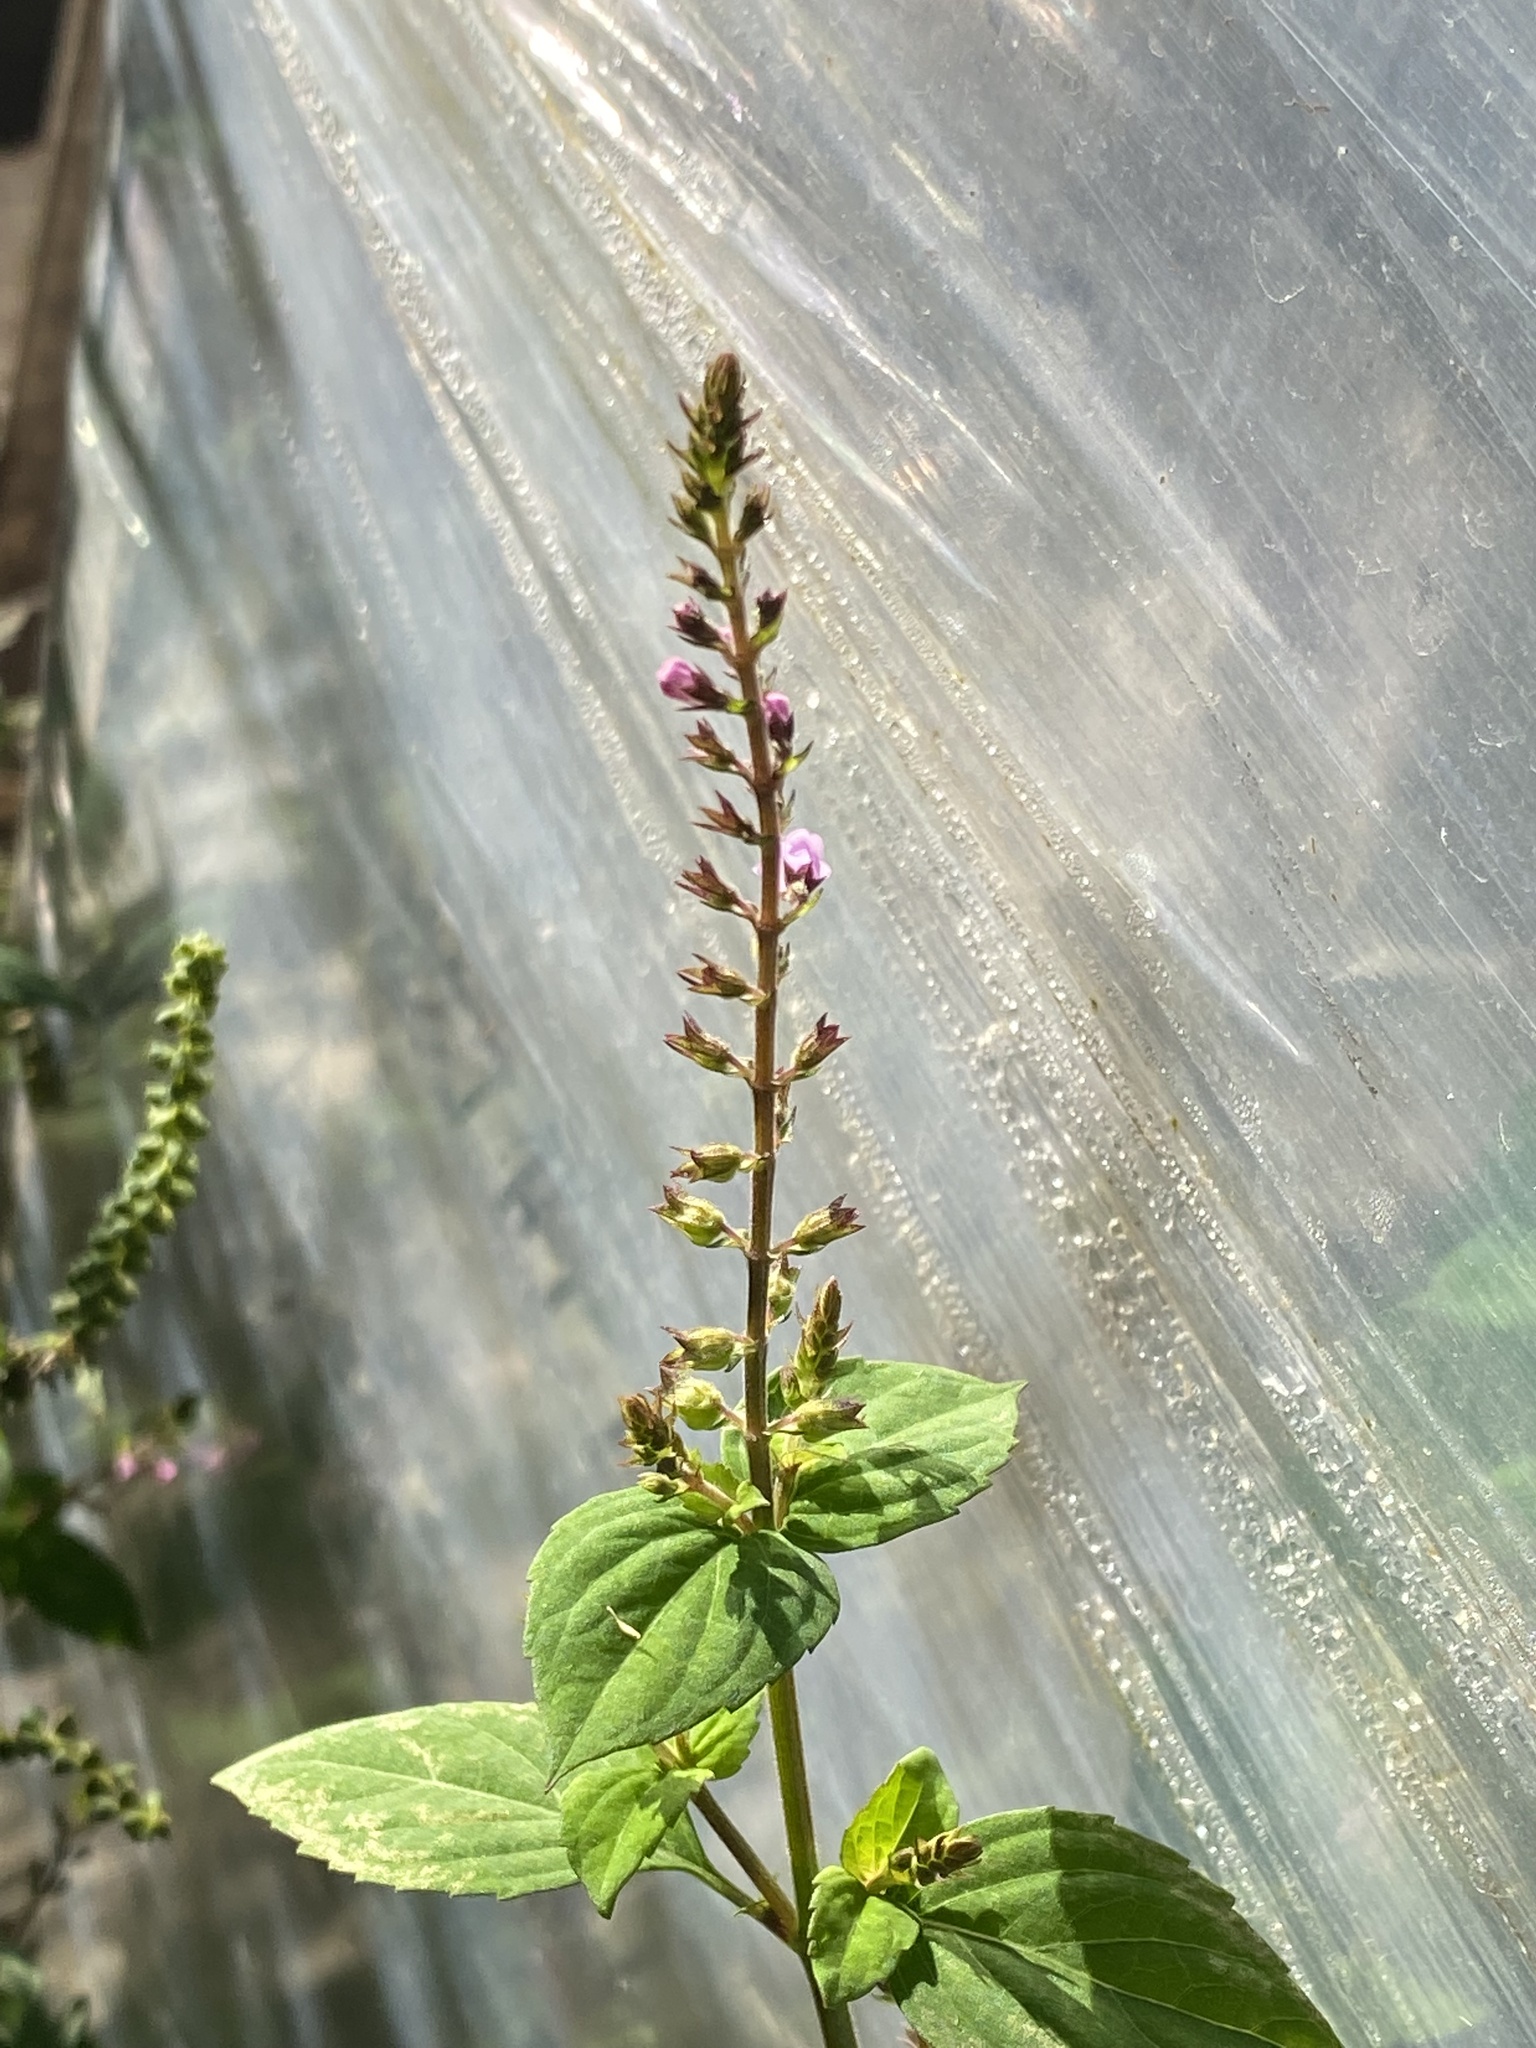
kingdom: Plantae
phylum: Tracheophyta
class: Magnoliopsida
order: Lamiales
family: Lamiaceae
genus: Mosla
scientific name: Mosla dianthera
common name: Miniature beefsteakplant
